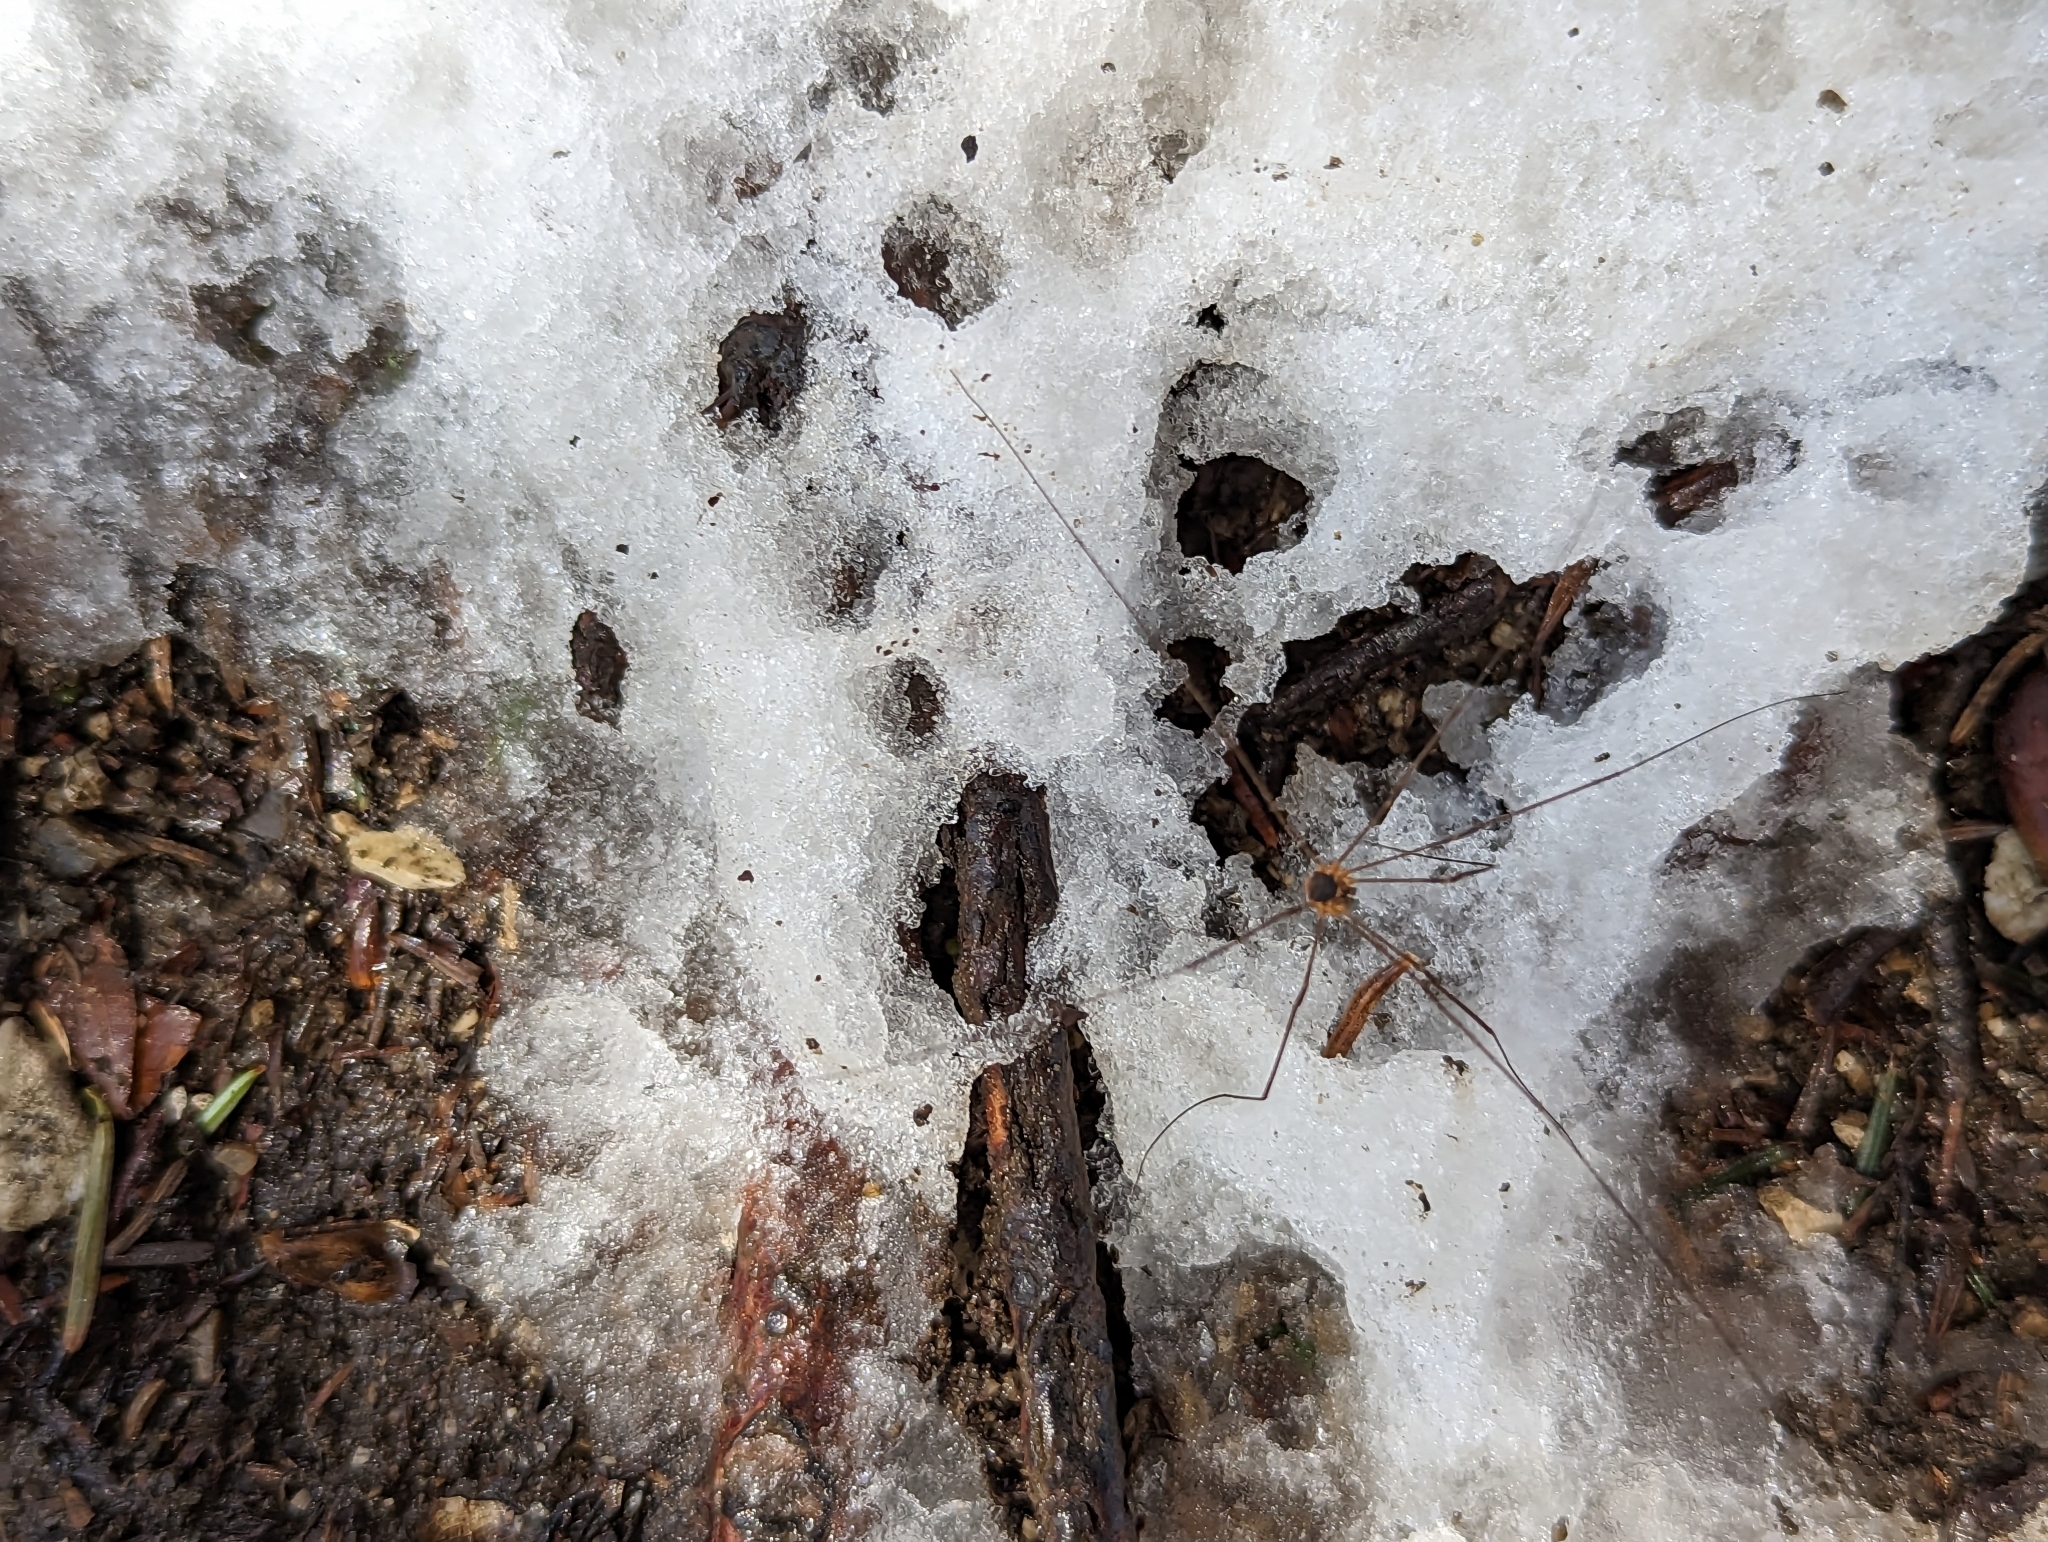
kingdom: Animalia
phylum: Arthropoda
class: Arachnida
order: Opiliones
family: Phalangiidae
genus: Amilenus
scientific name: Amilenus aurantiacus
